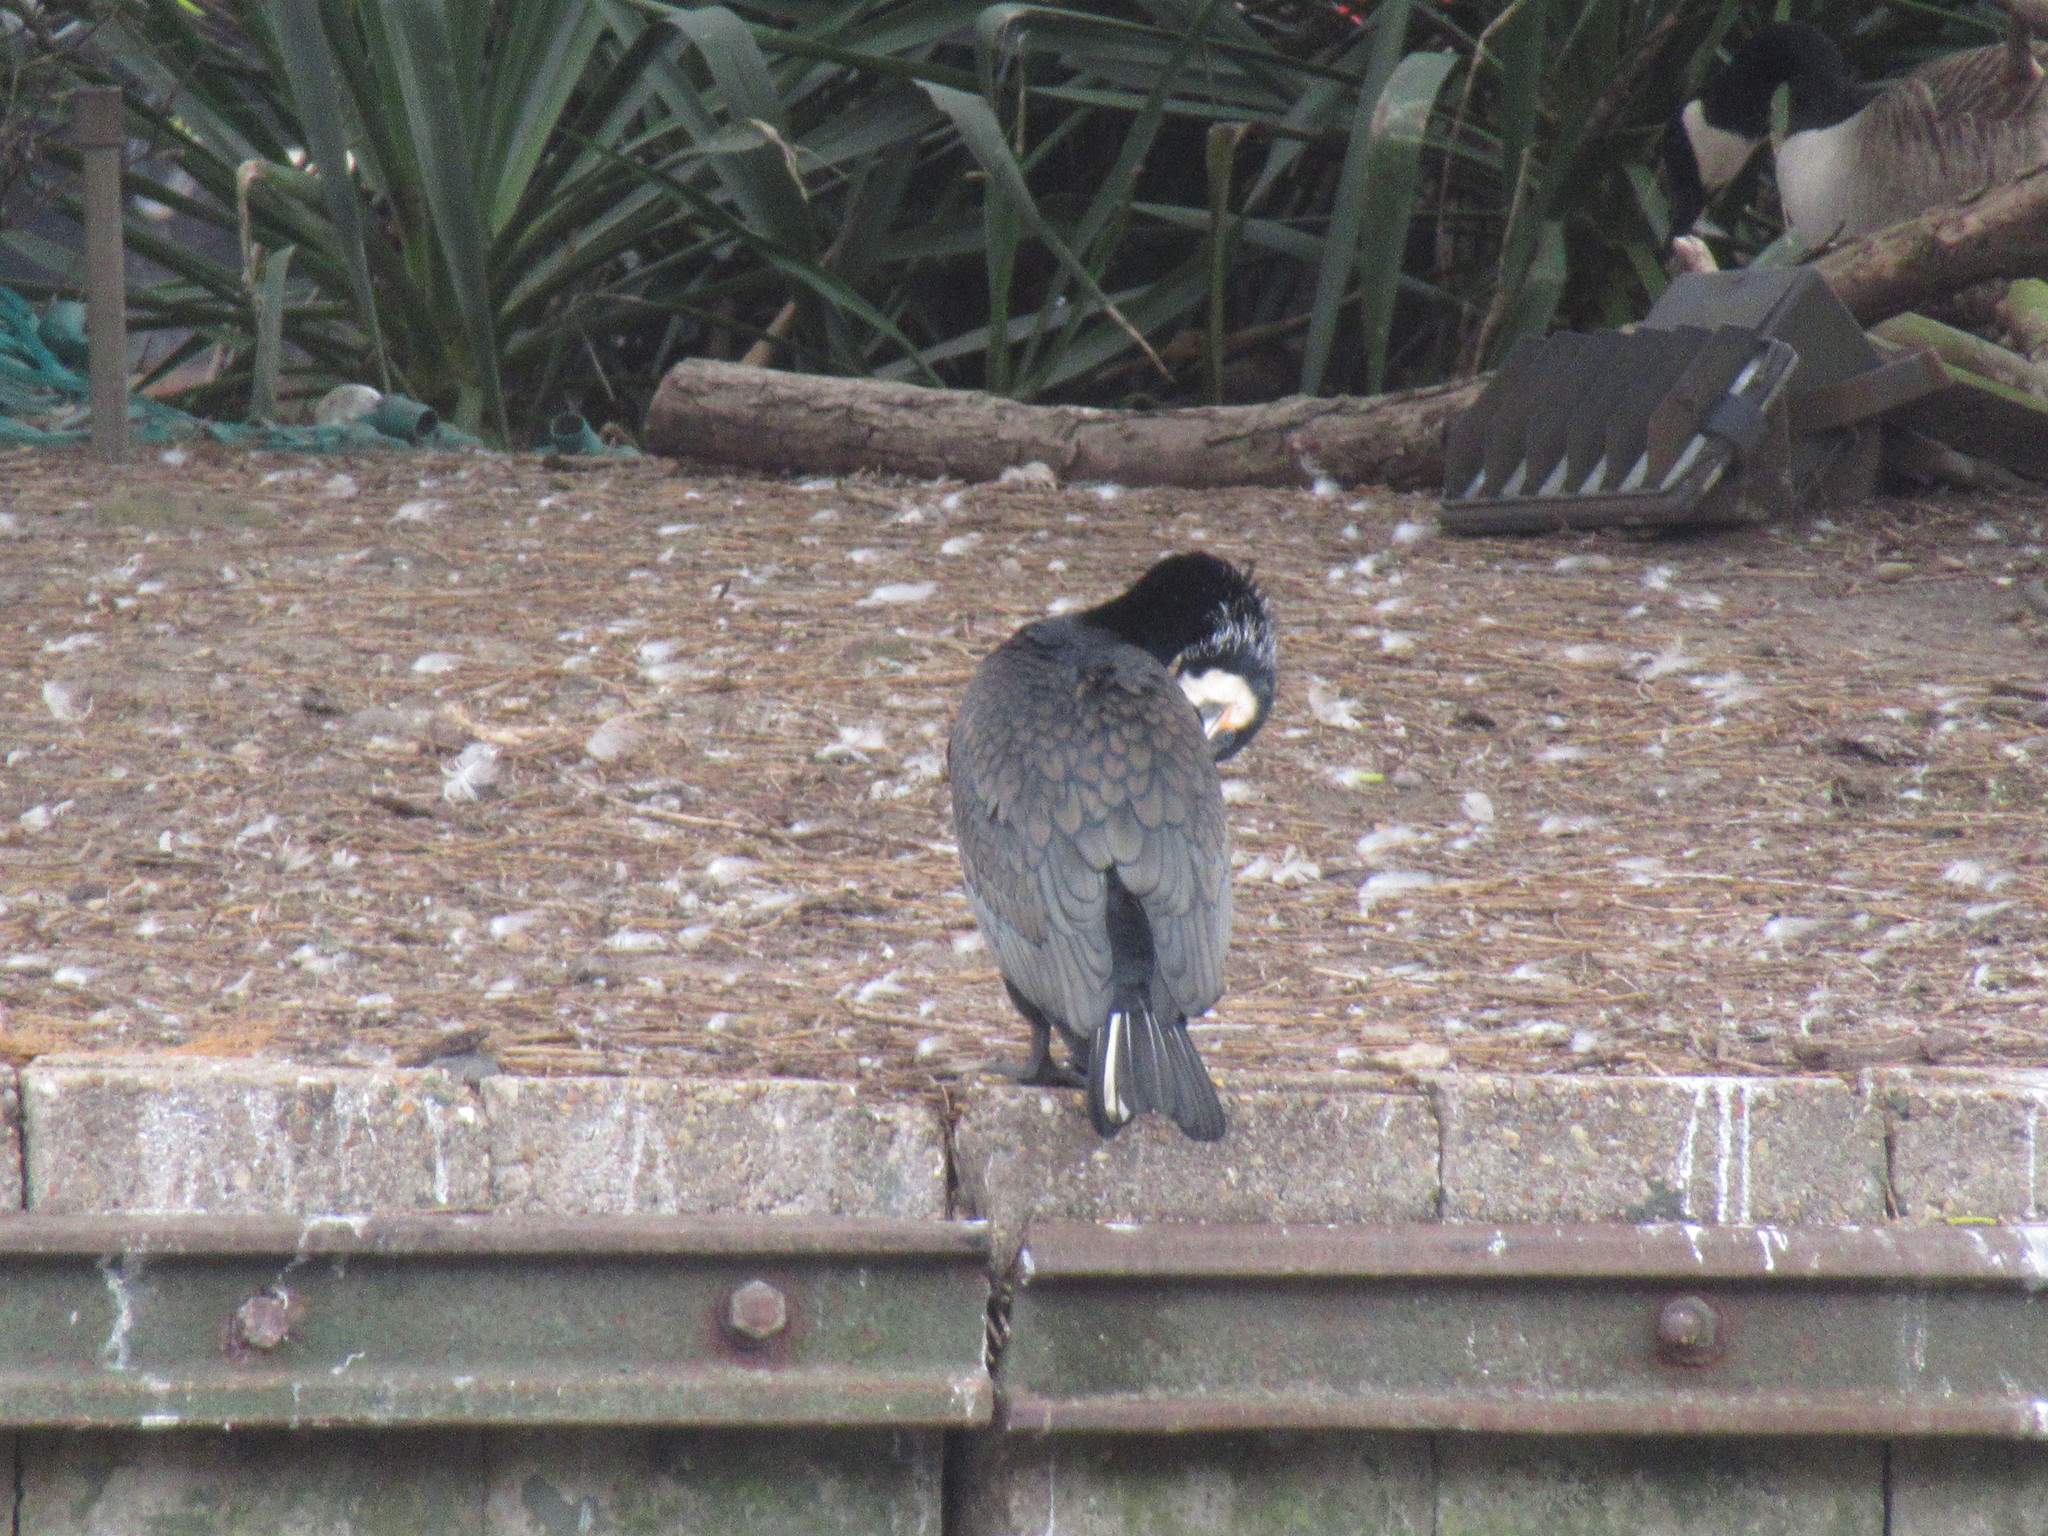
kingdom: Animalia
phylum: Chordata
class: Aves
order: Suliformes
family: Phalacrocoracidae
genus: Phalacrocorax
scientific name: Phalacrocorax carbo
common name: Great cormorant
